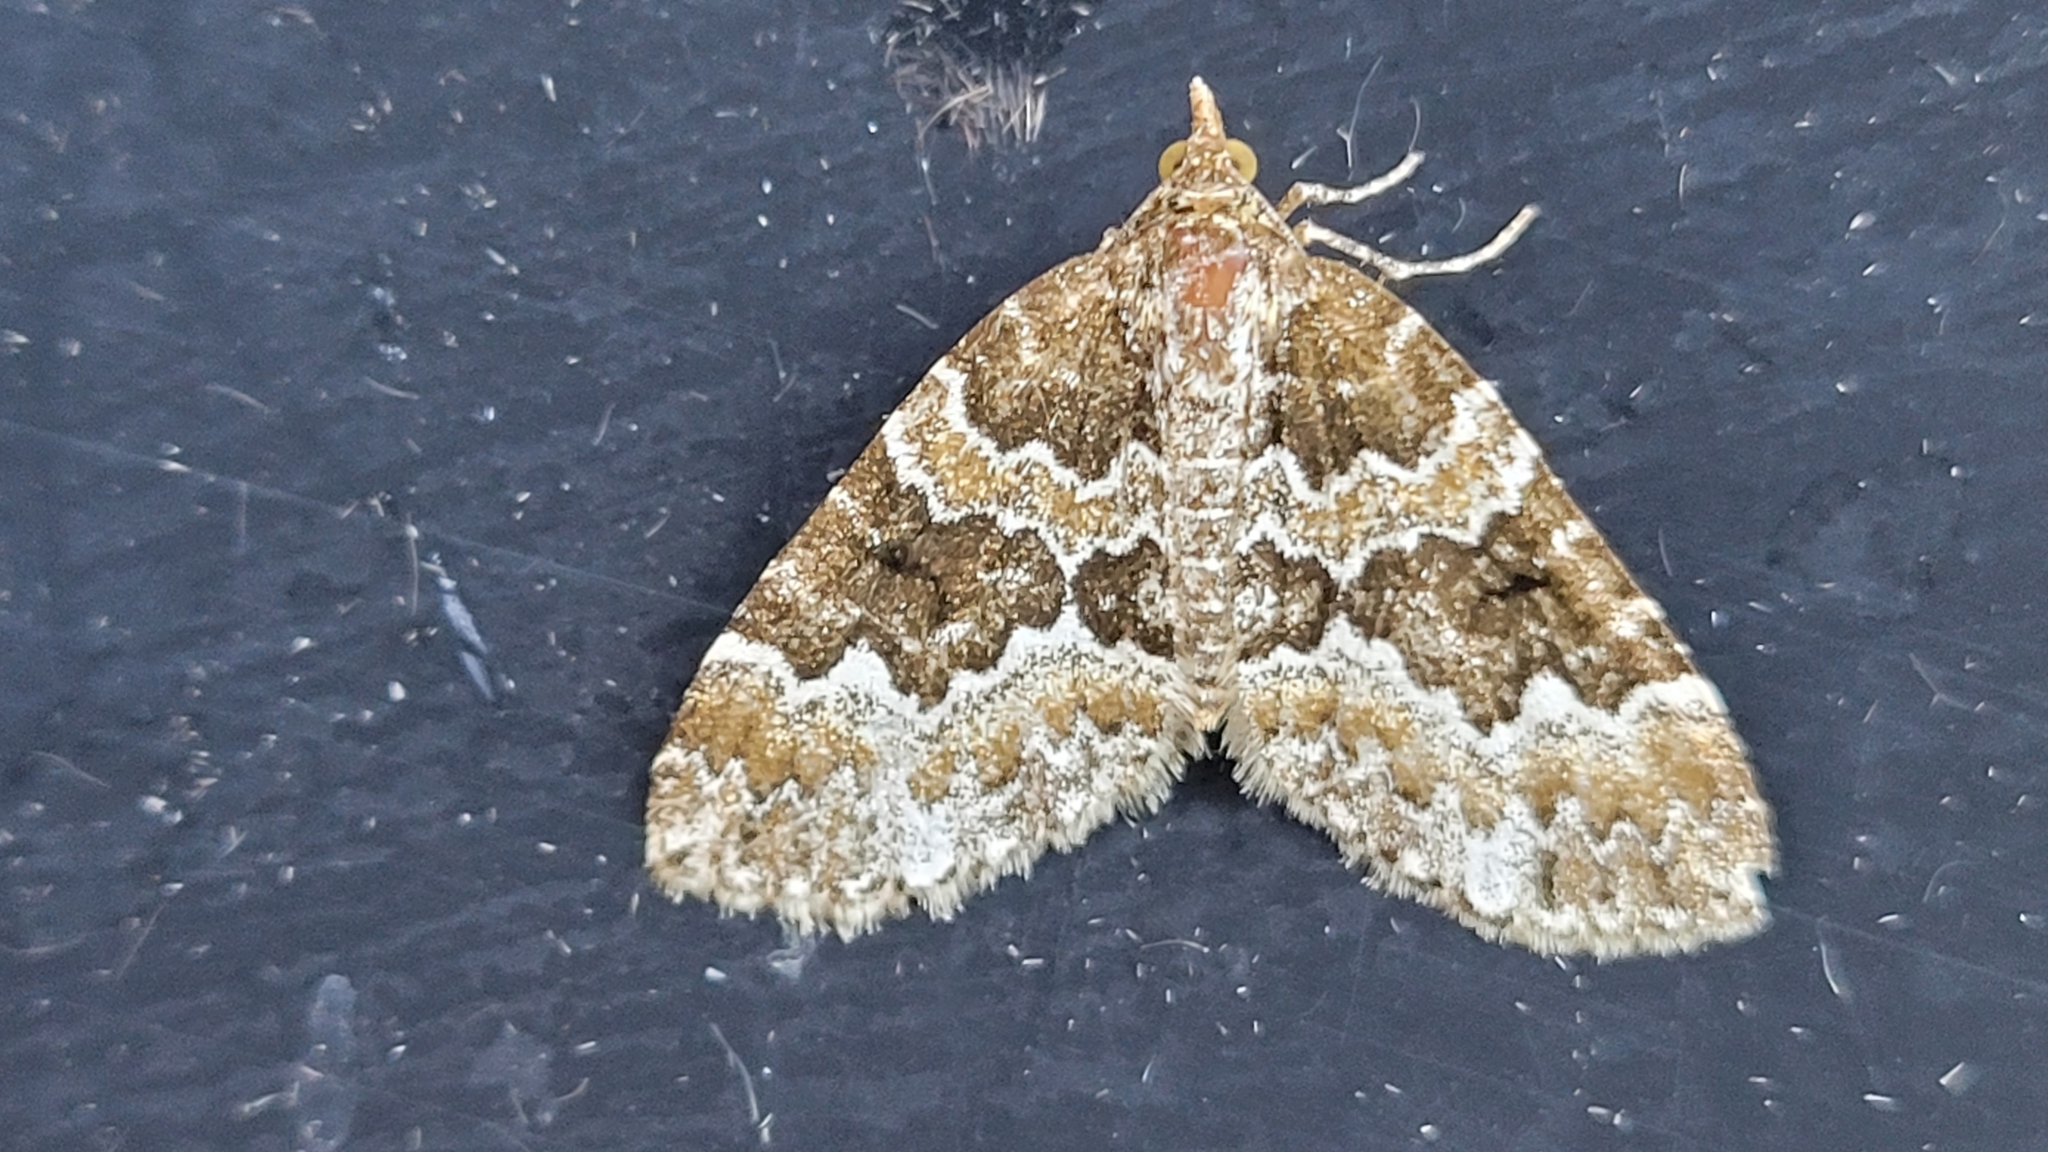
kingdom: Animalia
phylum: Arthropoda
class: Insecta
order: Lepidoptera
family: Geometridae
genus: Electrophaes
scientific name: Electrophaes corylata
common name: Broken-barred carpet
